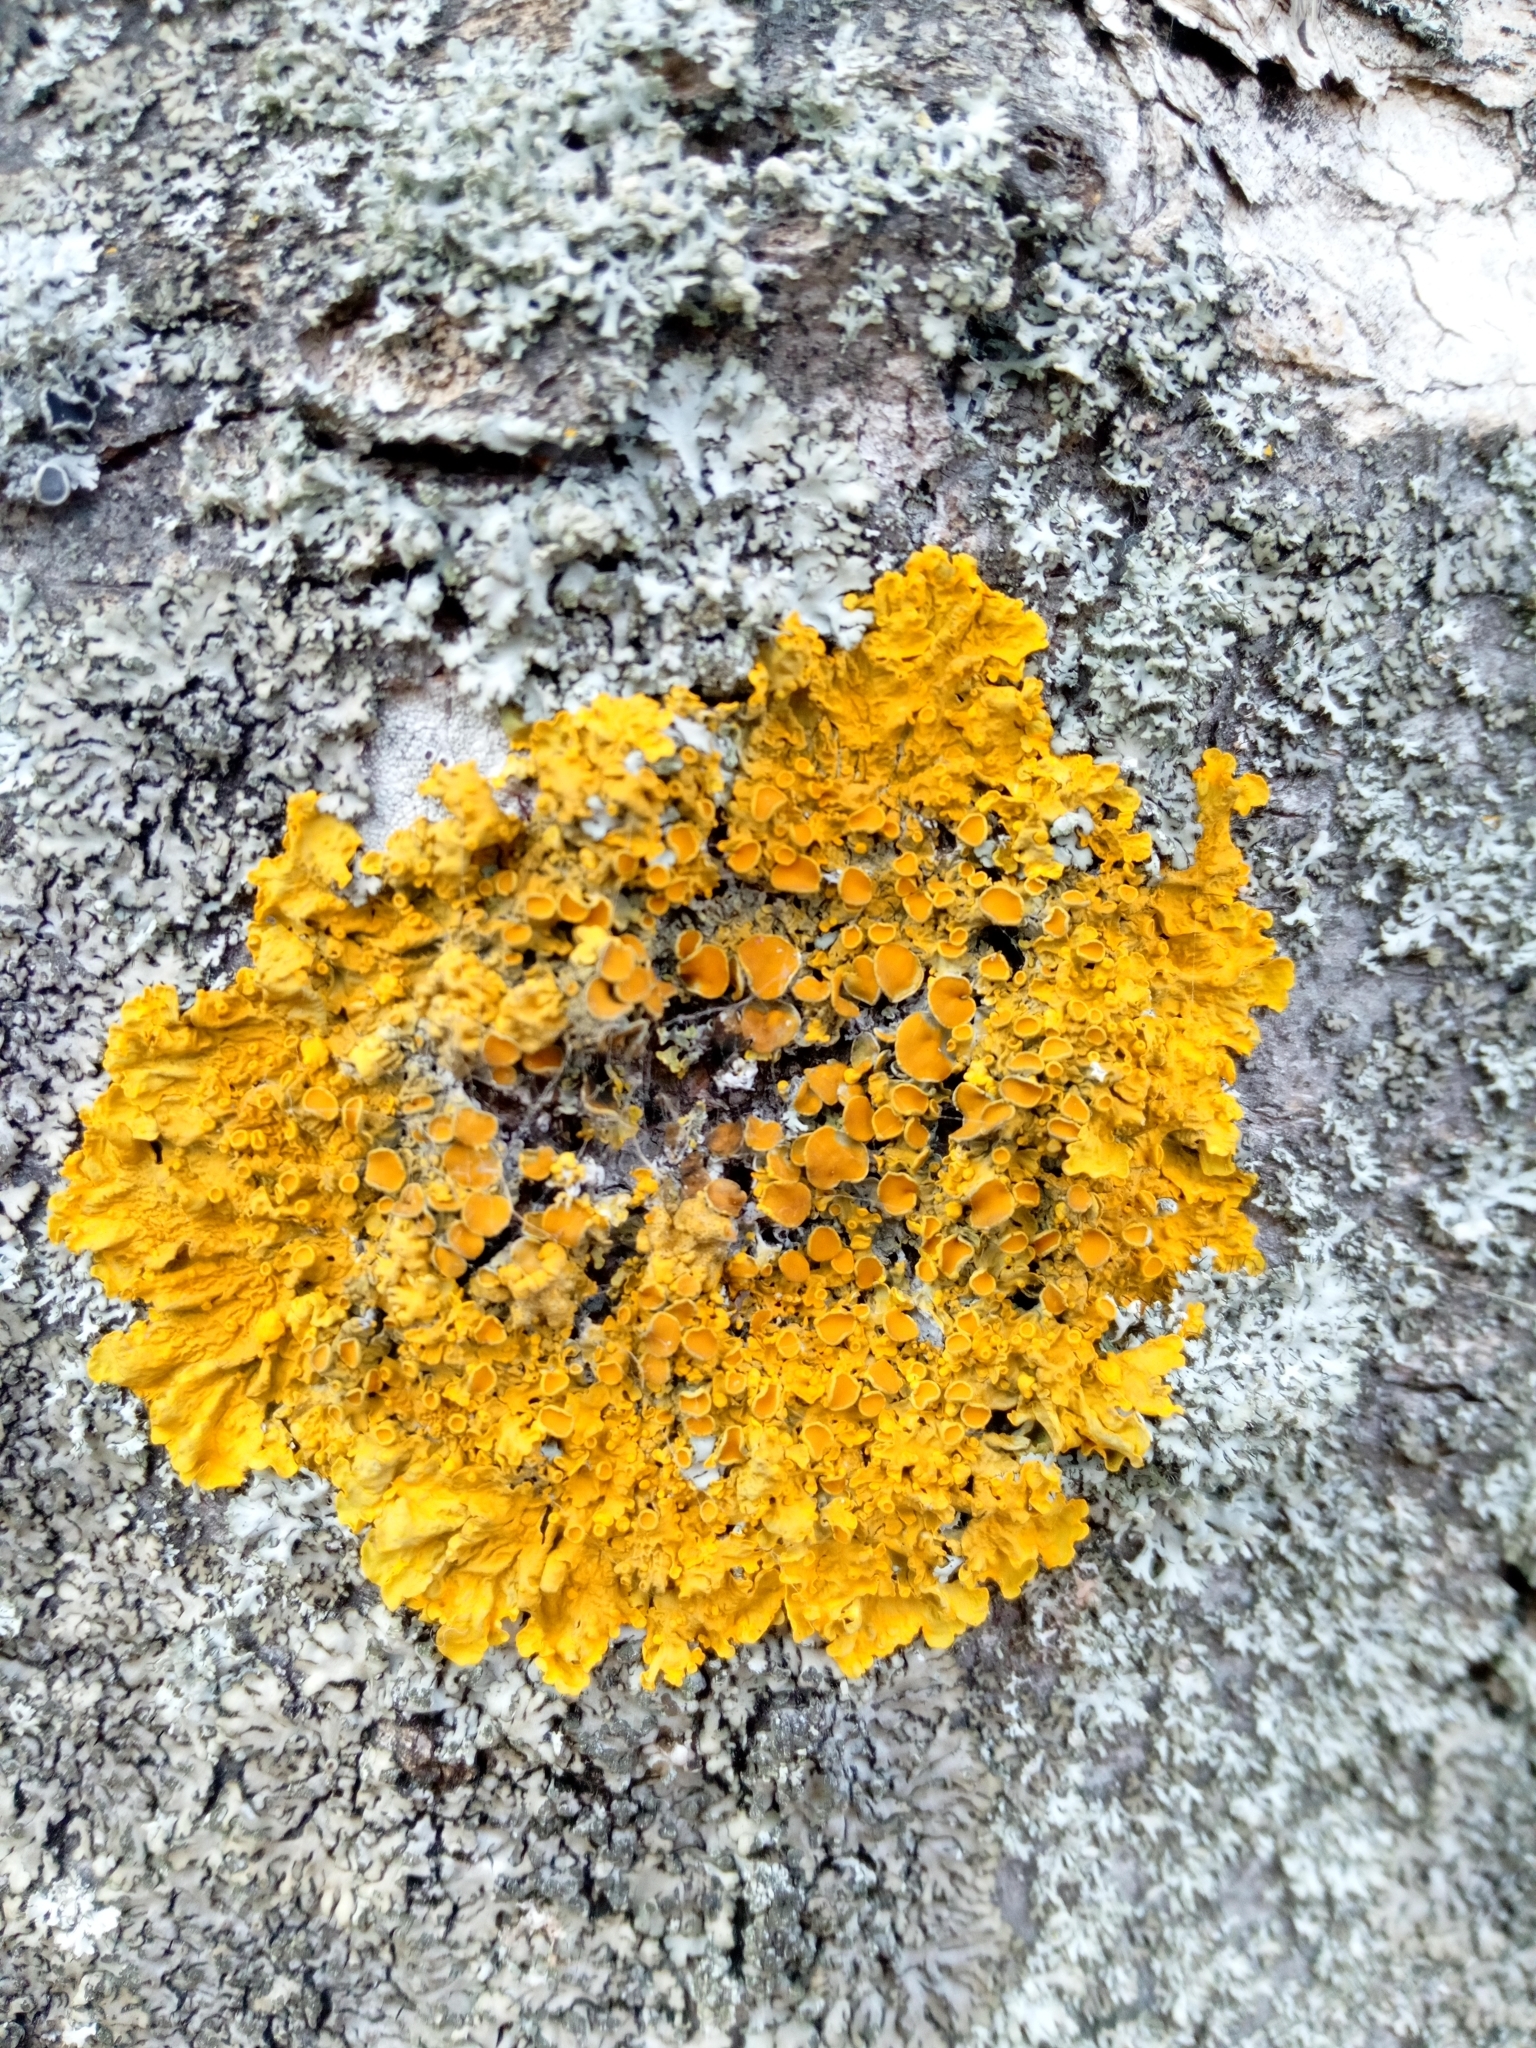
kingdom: Fungi
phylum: Ascomycota
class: Lecanoromycetes
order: Teloschistales
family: Teloschistaceae
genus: Xanthoria
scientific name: Xanthoria parietina
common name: Common orange lichen
